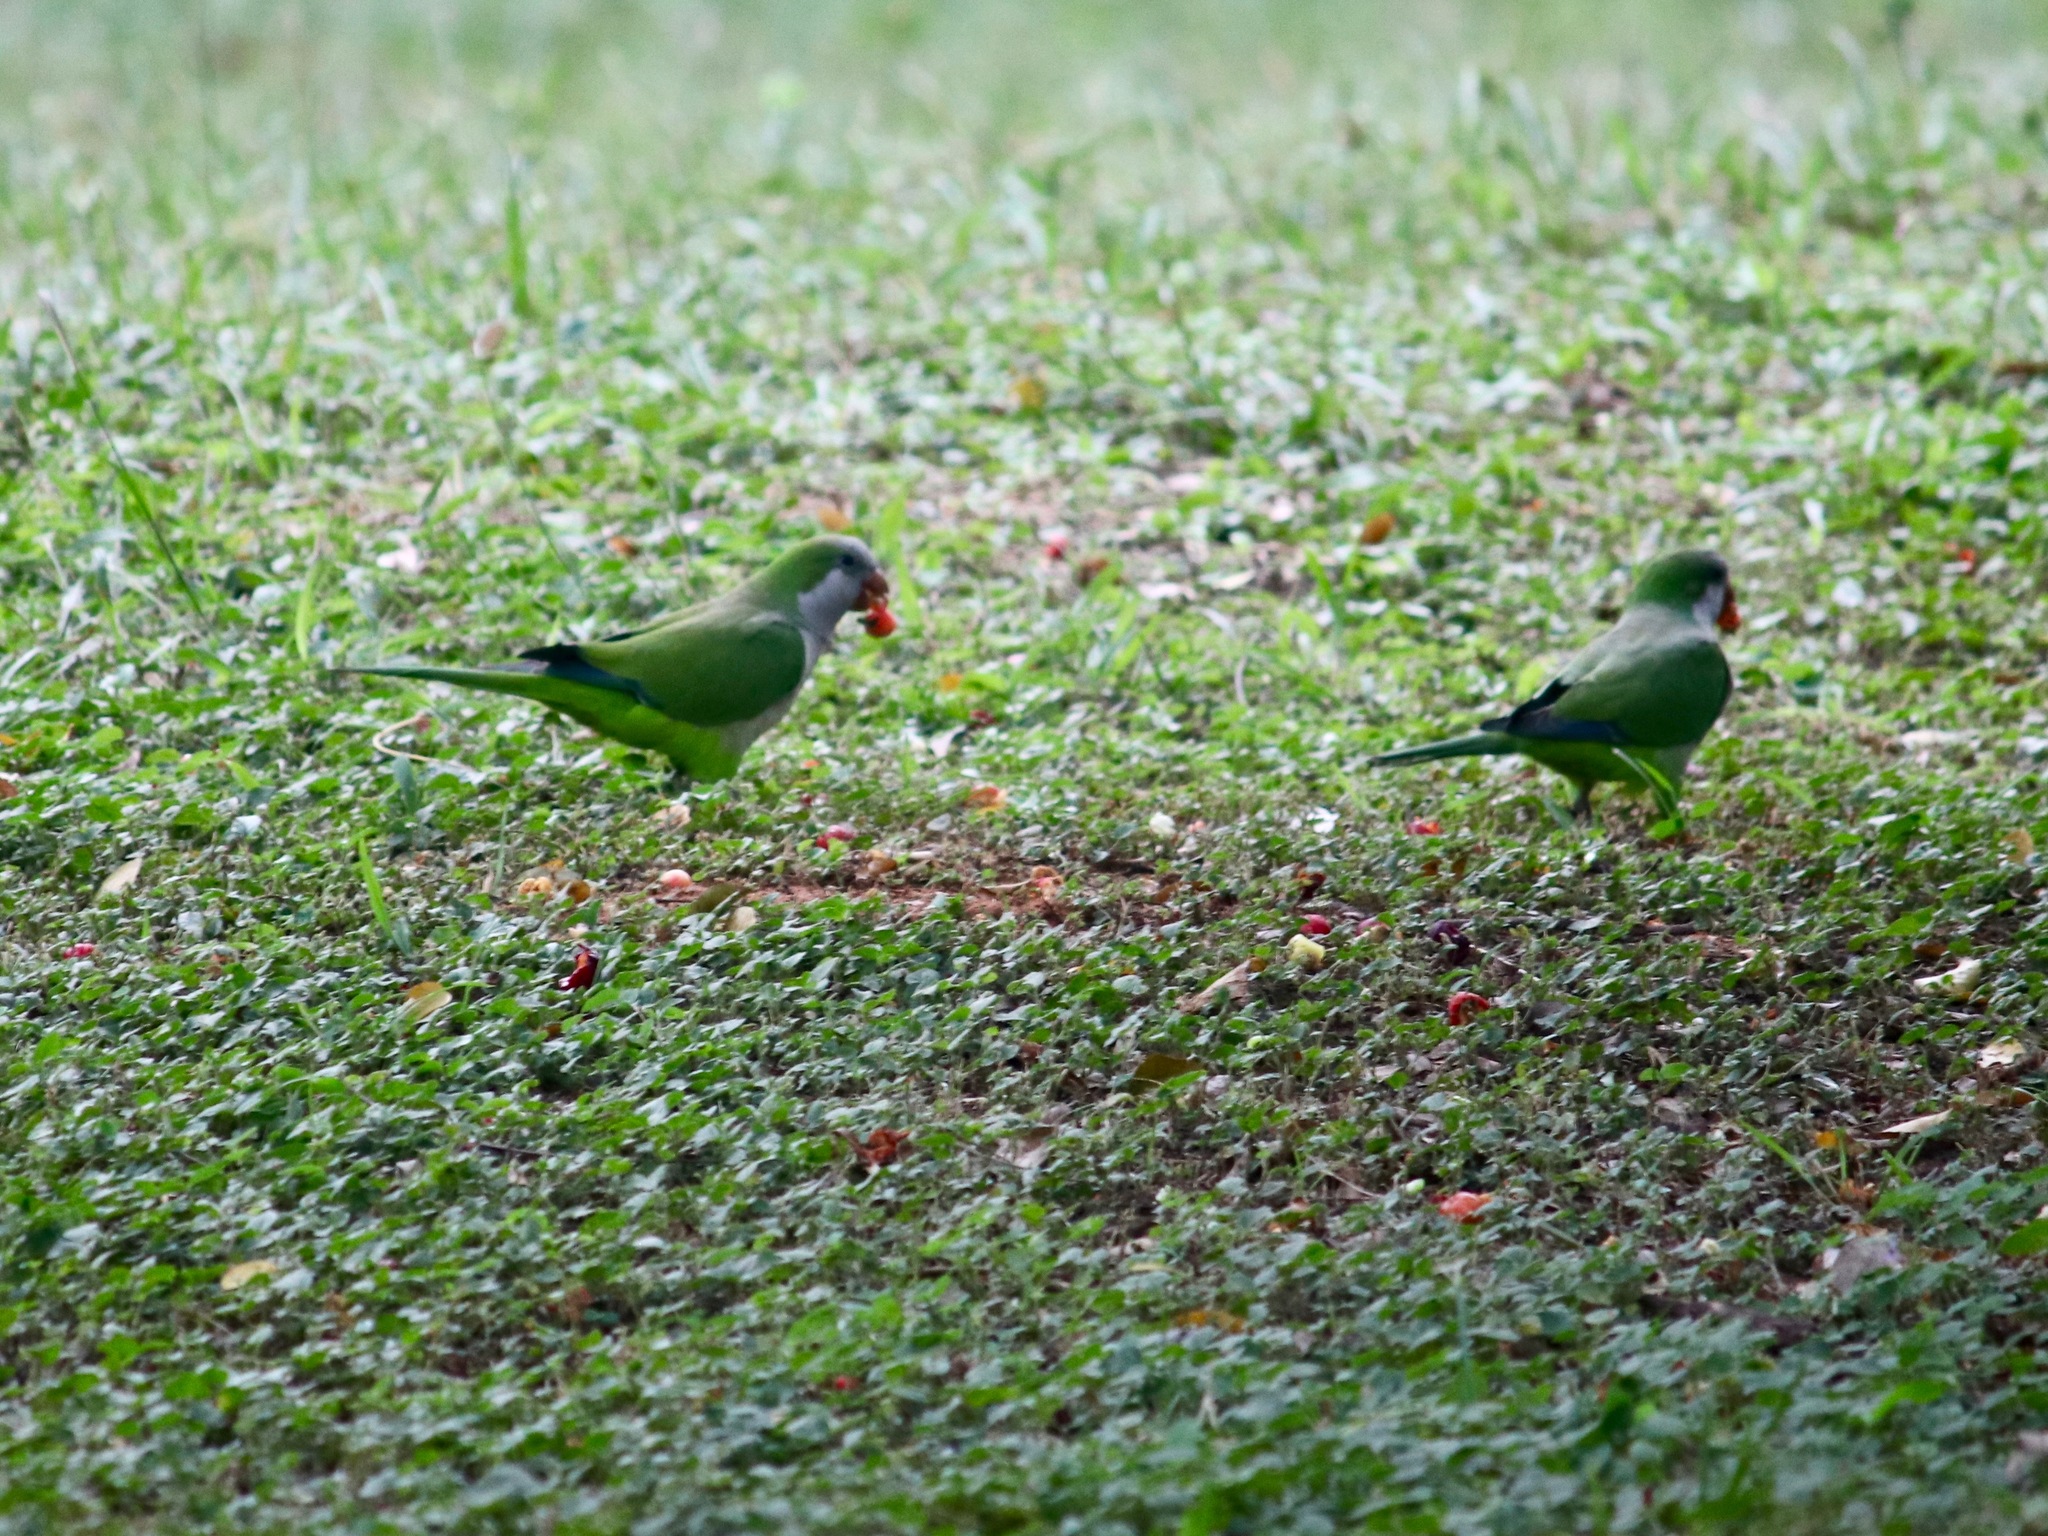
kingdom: Animalia
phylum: Chordata
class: Aves
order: Psittaciformes
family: Psittacidae
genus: Myiopsitta
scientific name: Myiopsitta monachus
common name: Monk parakeet
